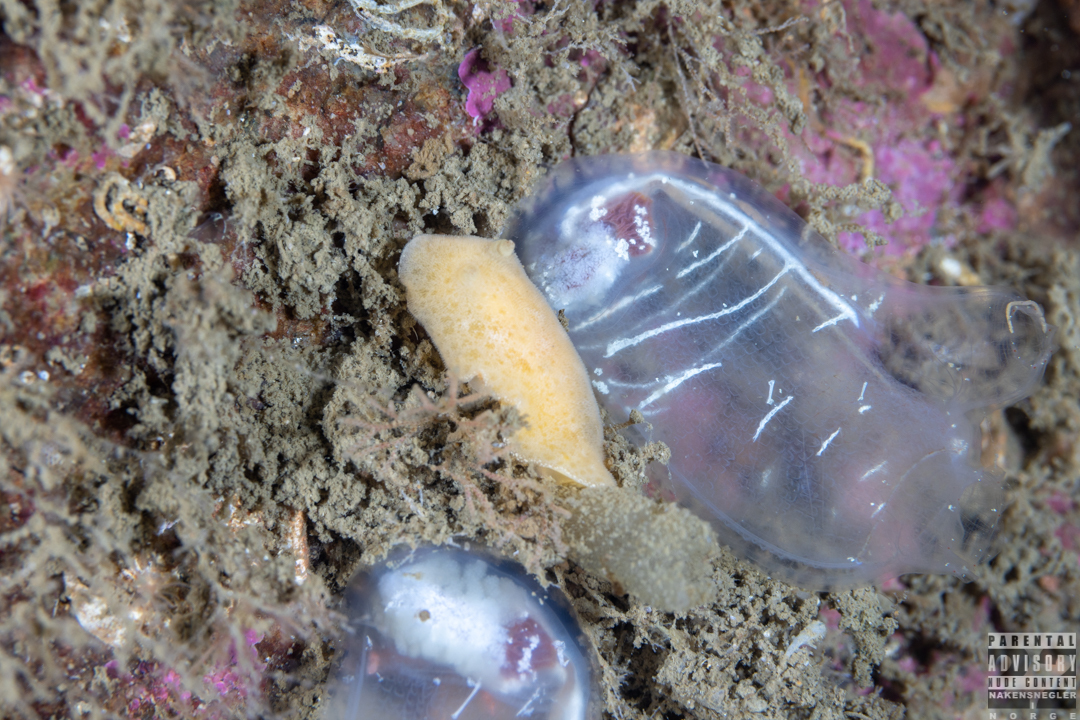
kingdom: Animalia
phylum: Mollusca
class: Gastropoda
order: Nudibranchia
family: Discodorididae
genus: Jorunna
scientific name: Jorunna tomentosa
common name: Grey sea slug
